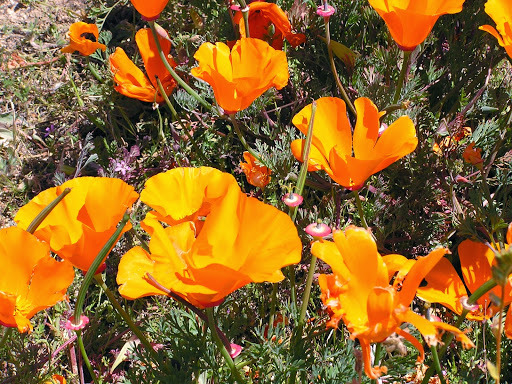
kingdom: Plantae
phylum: Tracheophyta
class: Magnoliopsida
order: Ranunculales
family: Papaveraceae
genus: Eschscholzia
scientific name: Eschscholzia californica
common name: California poppy
